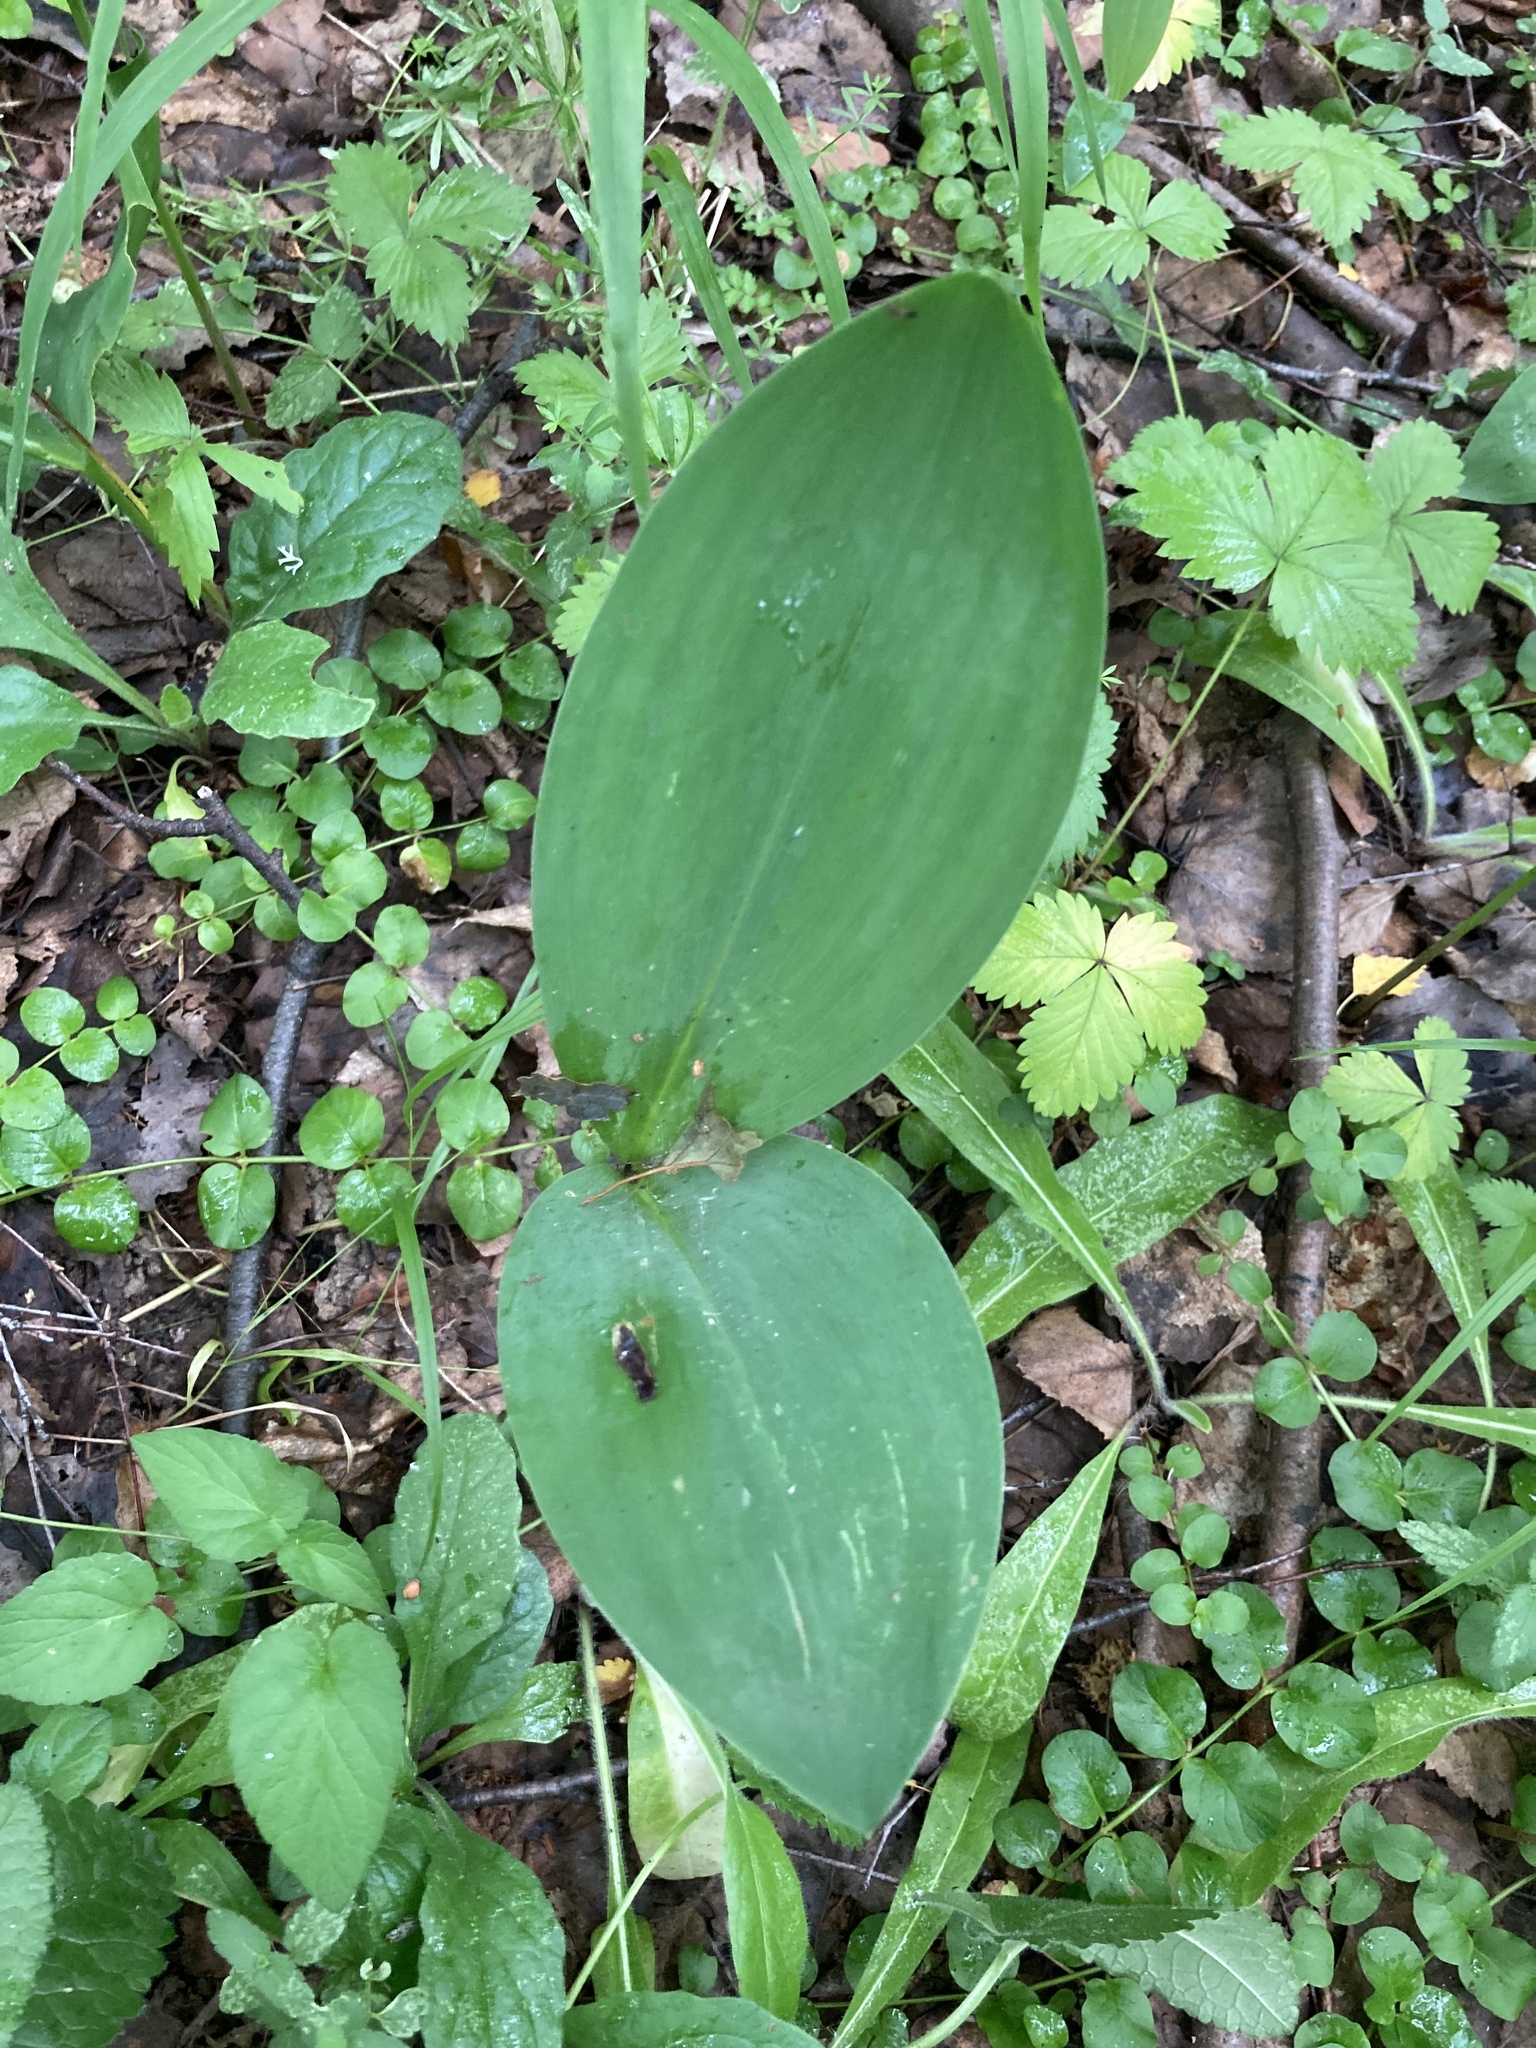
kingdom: Plantae
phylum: Tracheophyta
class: Liliopsida
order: Asparagales
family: Asparagaceae
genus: Convallaria
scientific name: Convallaria majalis
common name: Lily-of-the-valley
